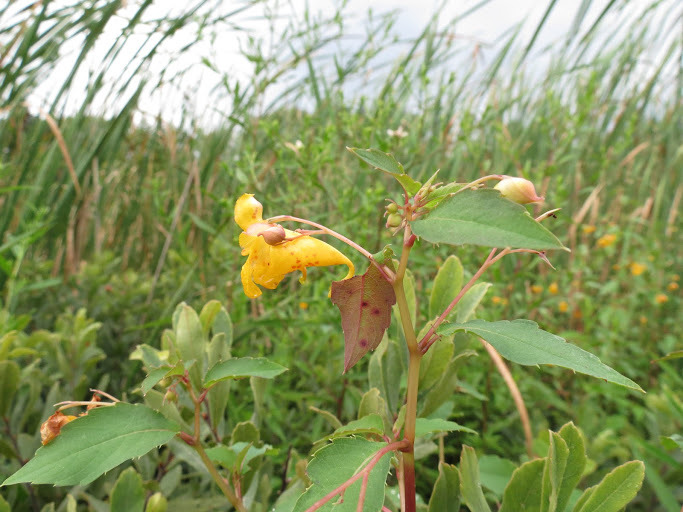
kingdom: Plantae
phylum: Tracheophyta
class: Magnoliopsida
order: Ericales
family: Balsaminaceae
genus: Impatiens
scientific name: Impatiens capensis
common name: Orange balsam
